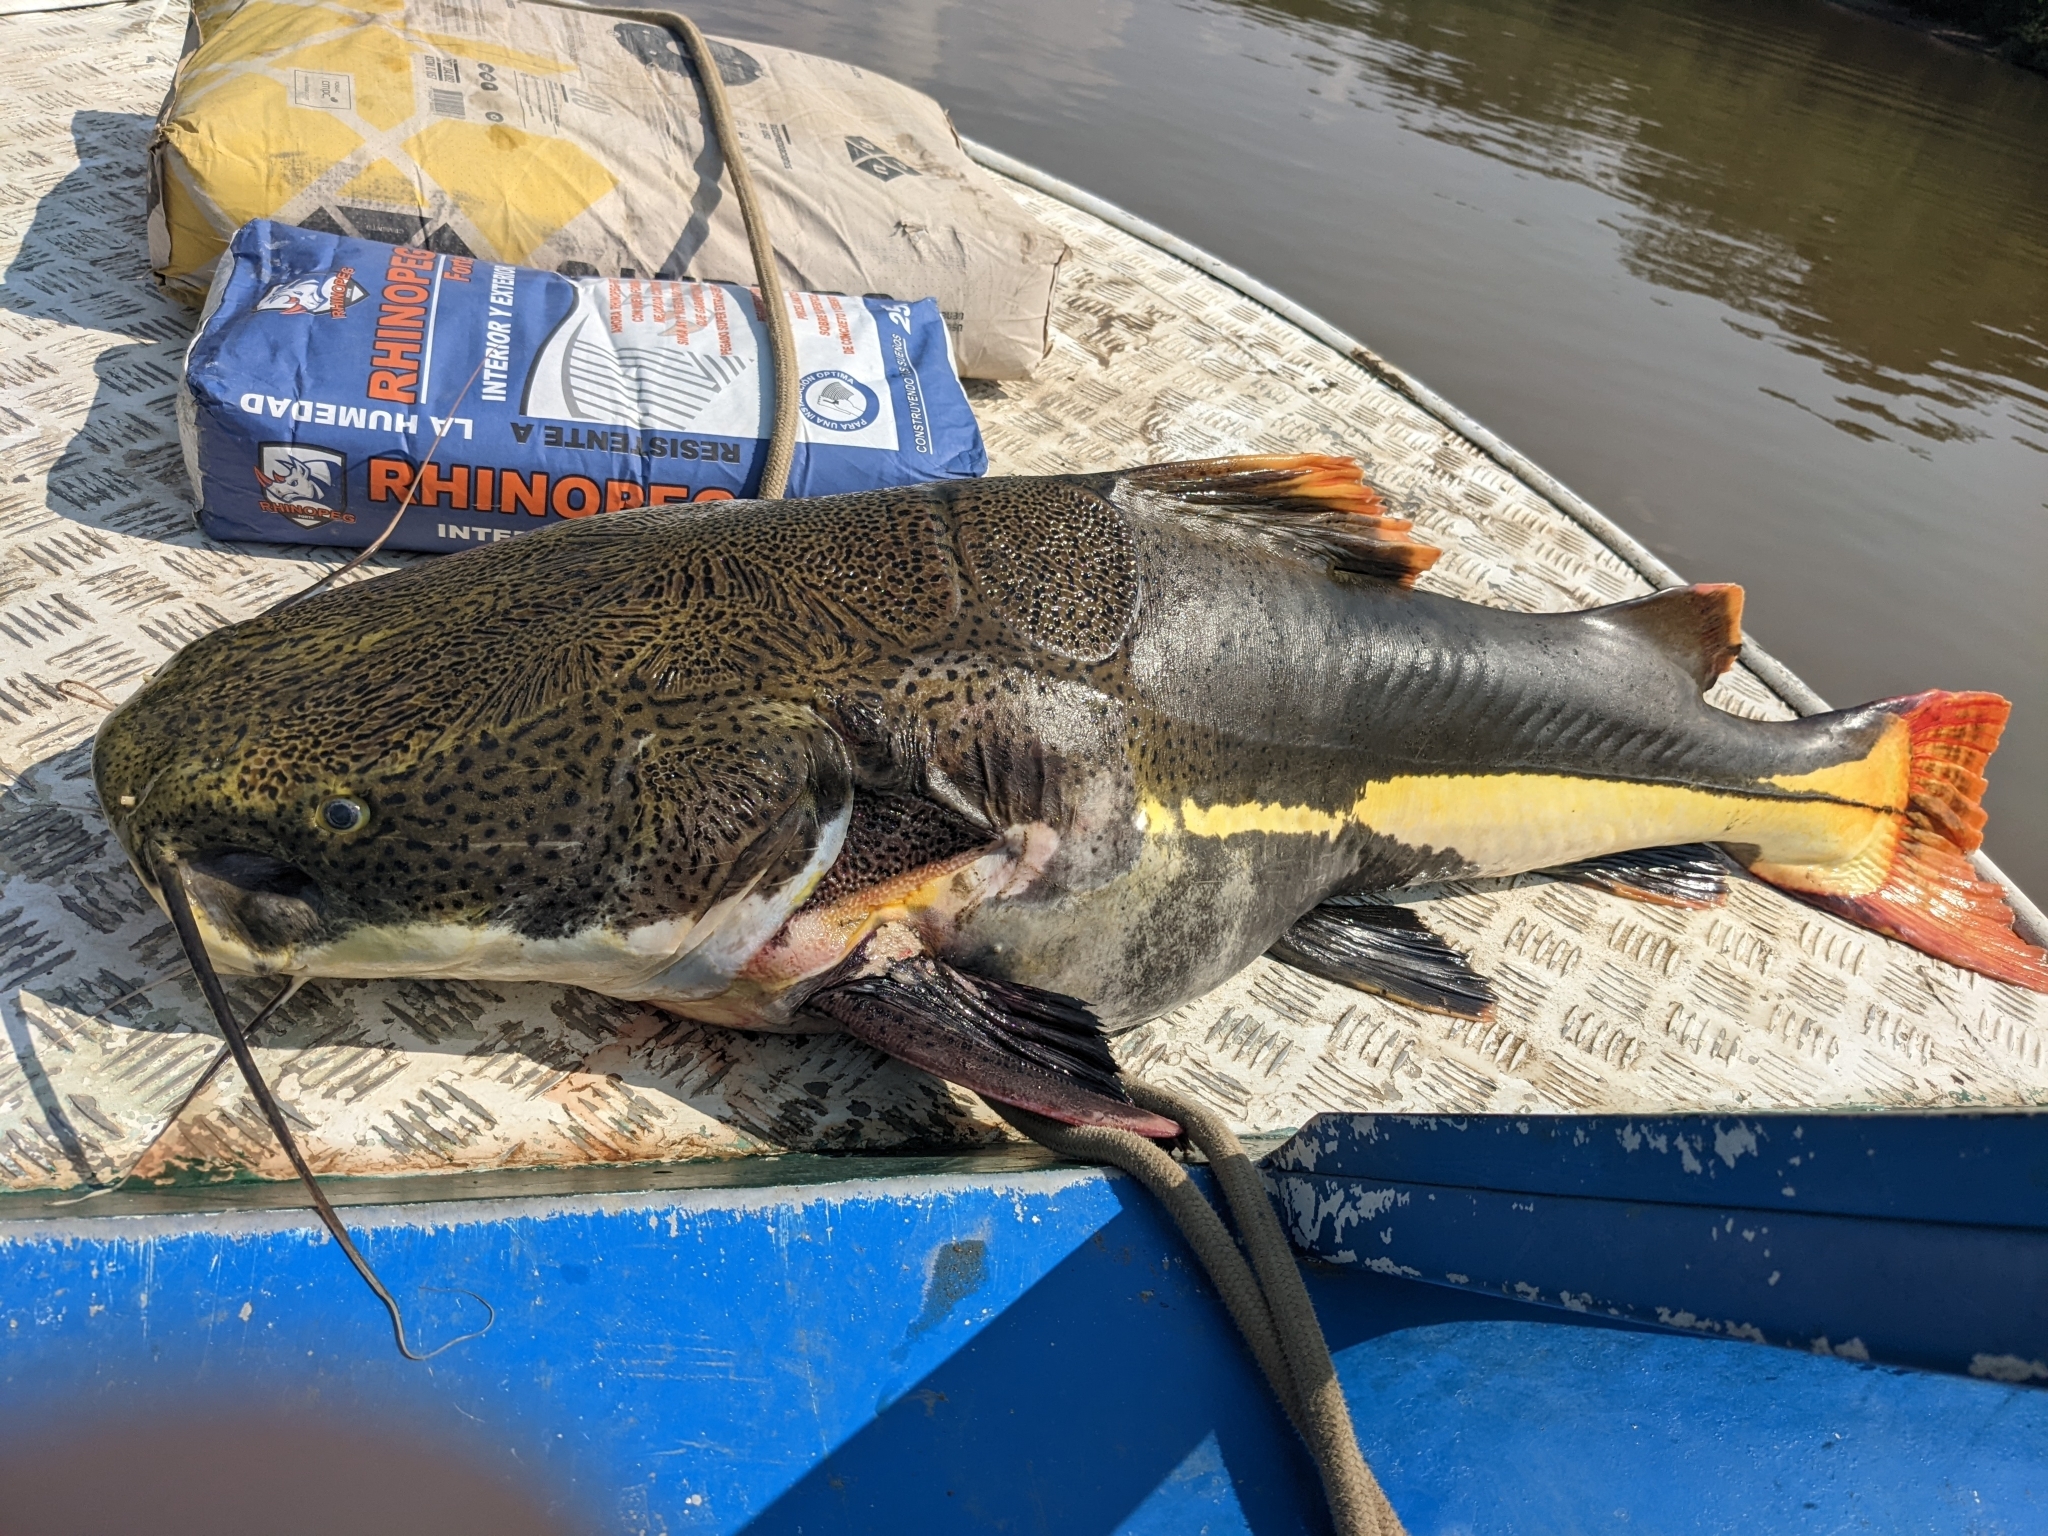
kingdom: Animalia
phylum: Chordata
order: Siluriformes
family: Pimelodidae
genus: Phractocephalus
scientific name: Phractocephalus hemioliopterus
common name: Redtail catfish
